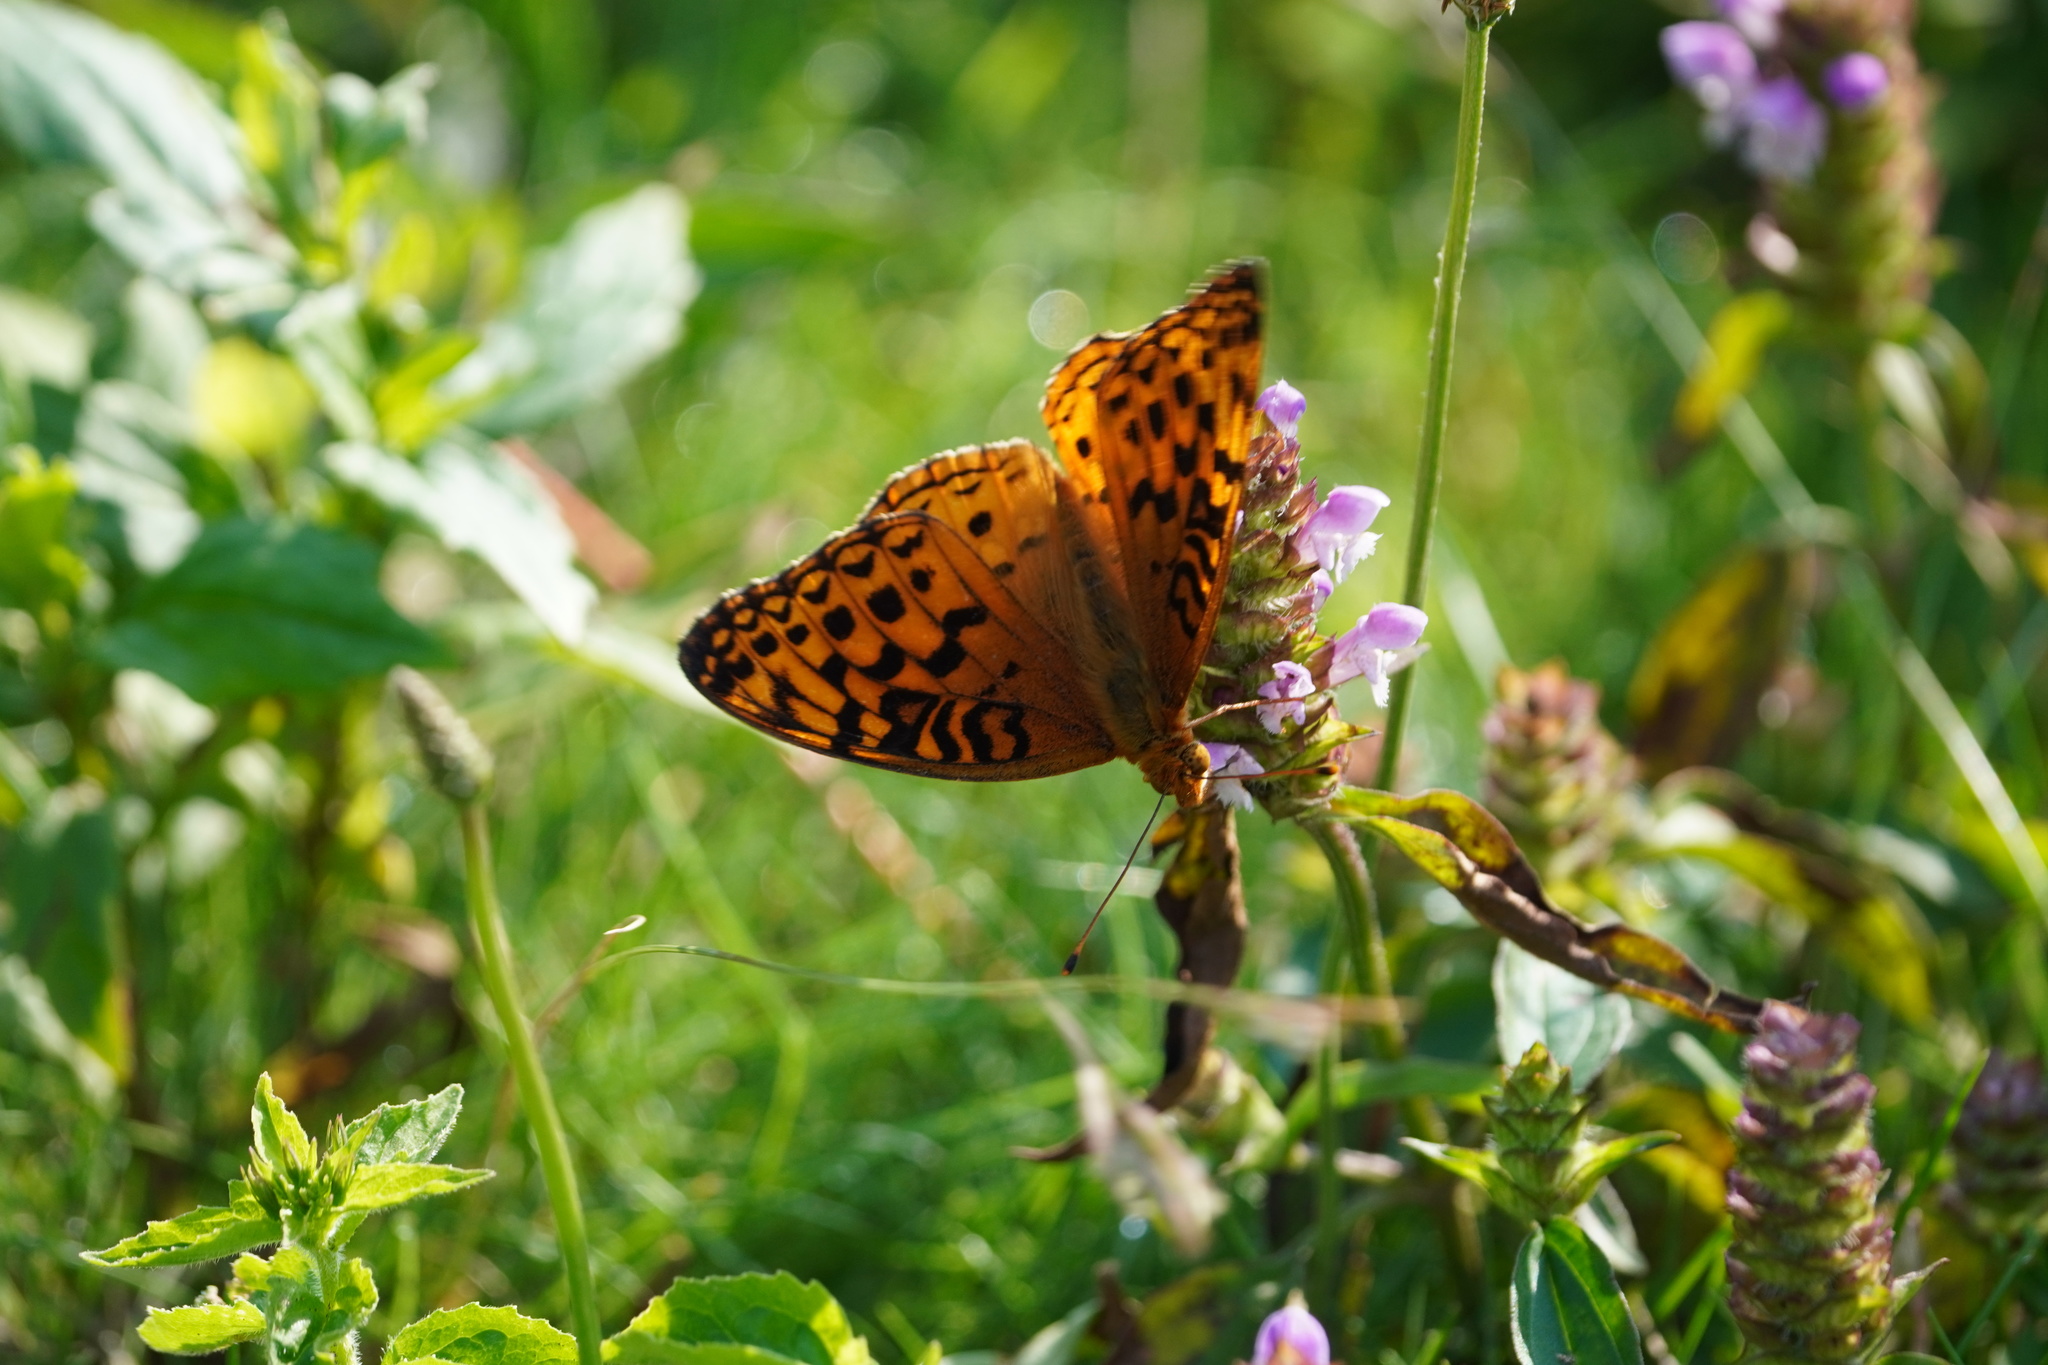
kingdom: Animalia
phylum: Arthropoda
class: Insecta
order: Lepidoptera
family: Nymphalidae
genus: Speyeria
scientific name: Speyeria aphrodite
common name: Aphrodite friitllary
